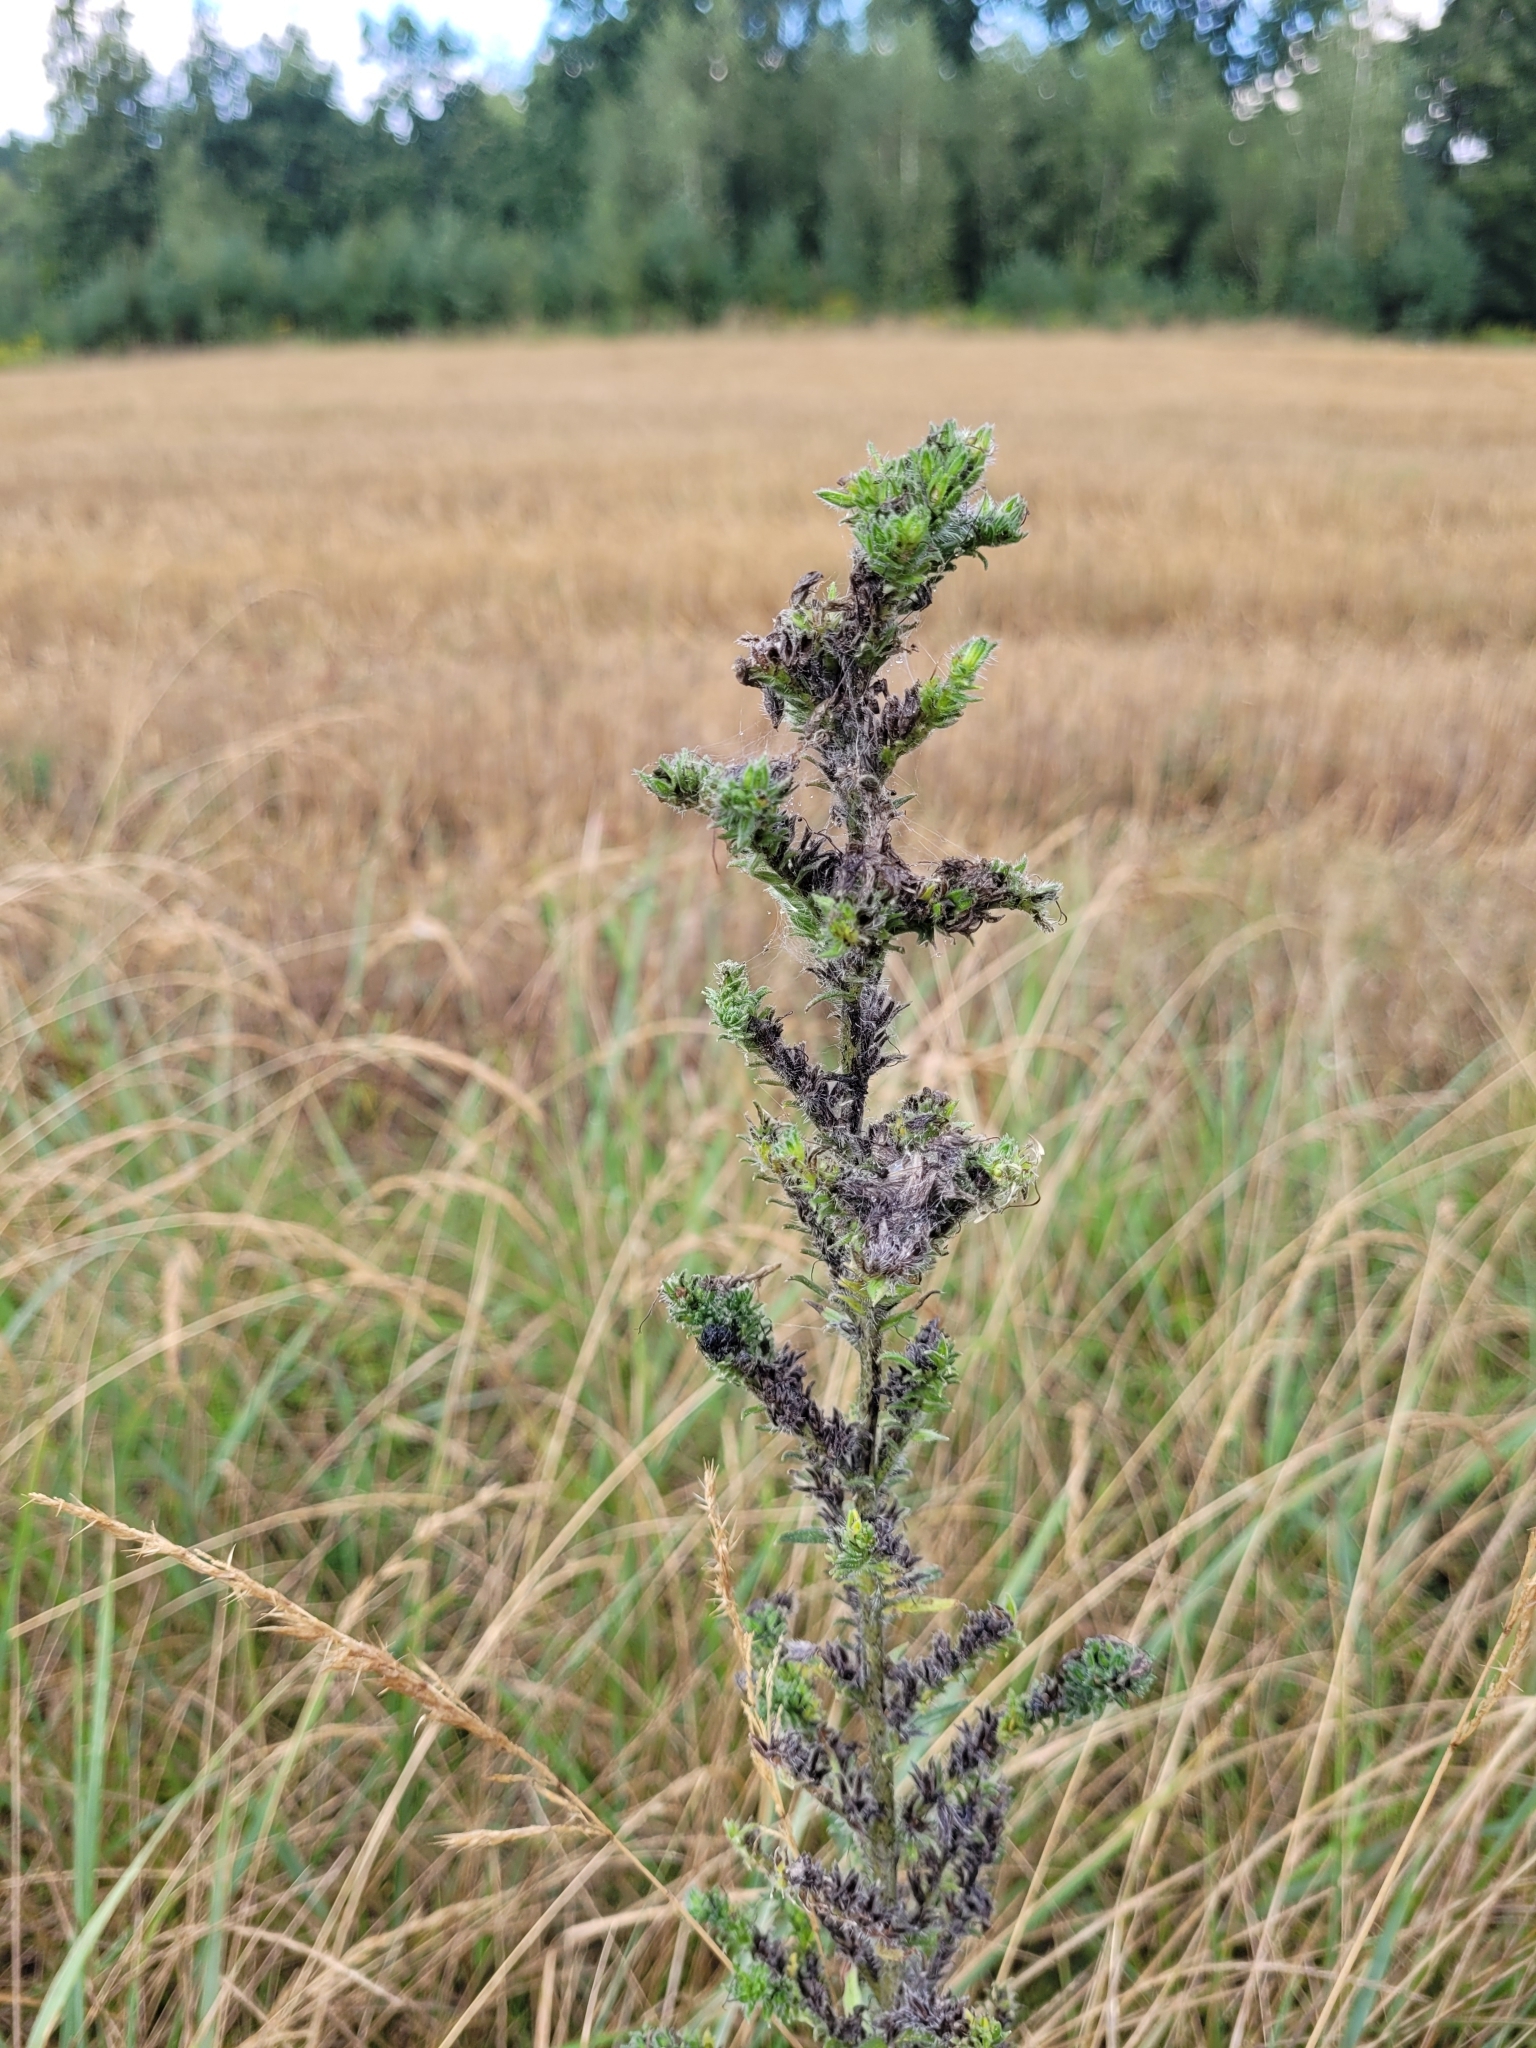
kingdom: Plantae
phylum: Tracheophyta
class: Magnoliopsida
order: Boraginales
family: Boraginaceae
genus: Echium
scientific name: Echium vulgare
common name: Common viper's bugloss
